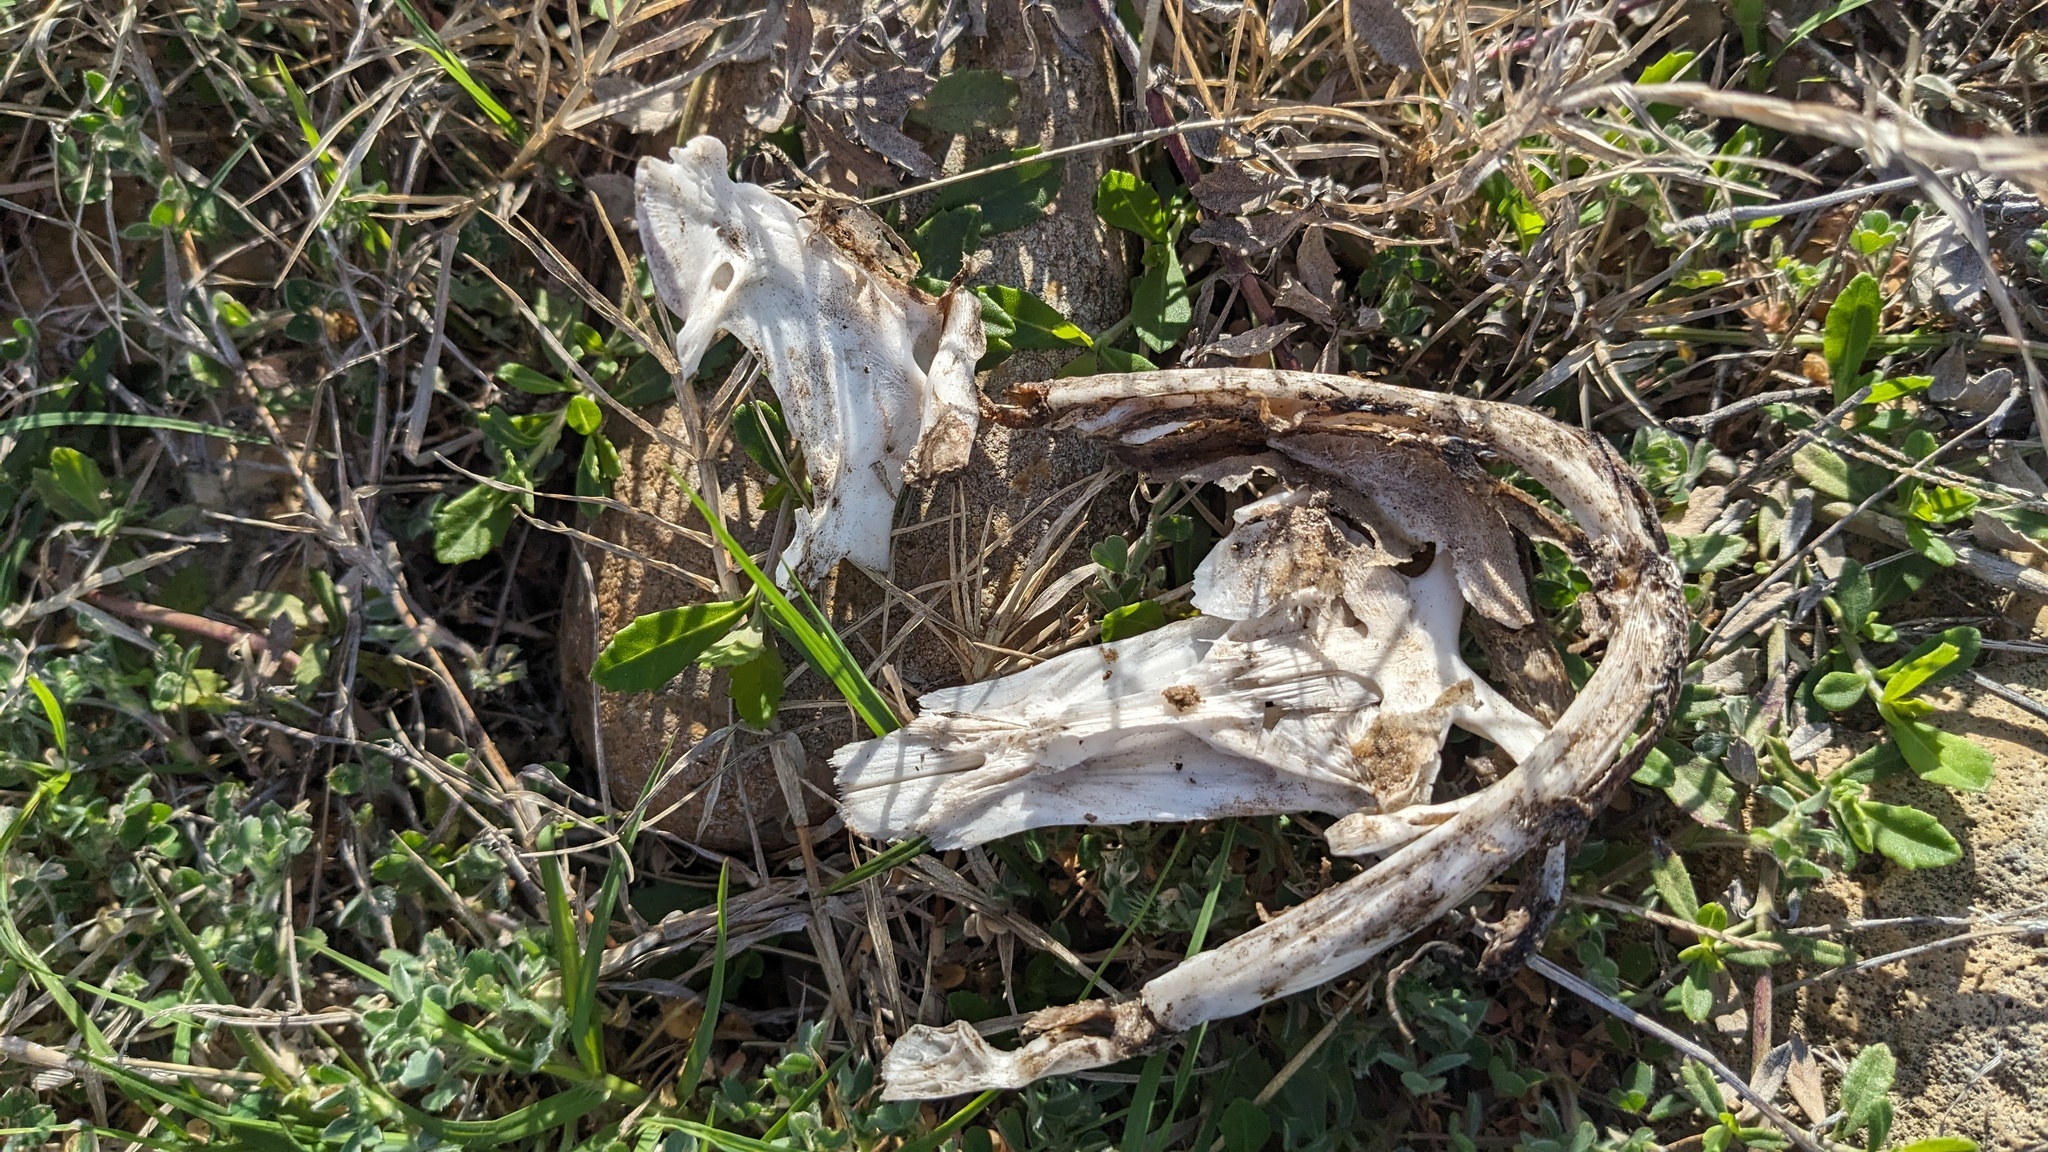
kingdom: Animalia
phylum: Chordata
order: Siluriformes
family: Ictaluridae
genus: Pylodictis
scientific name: Pylodictis olivaris
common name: Flathead catfish
